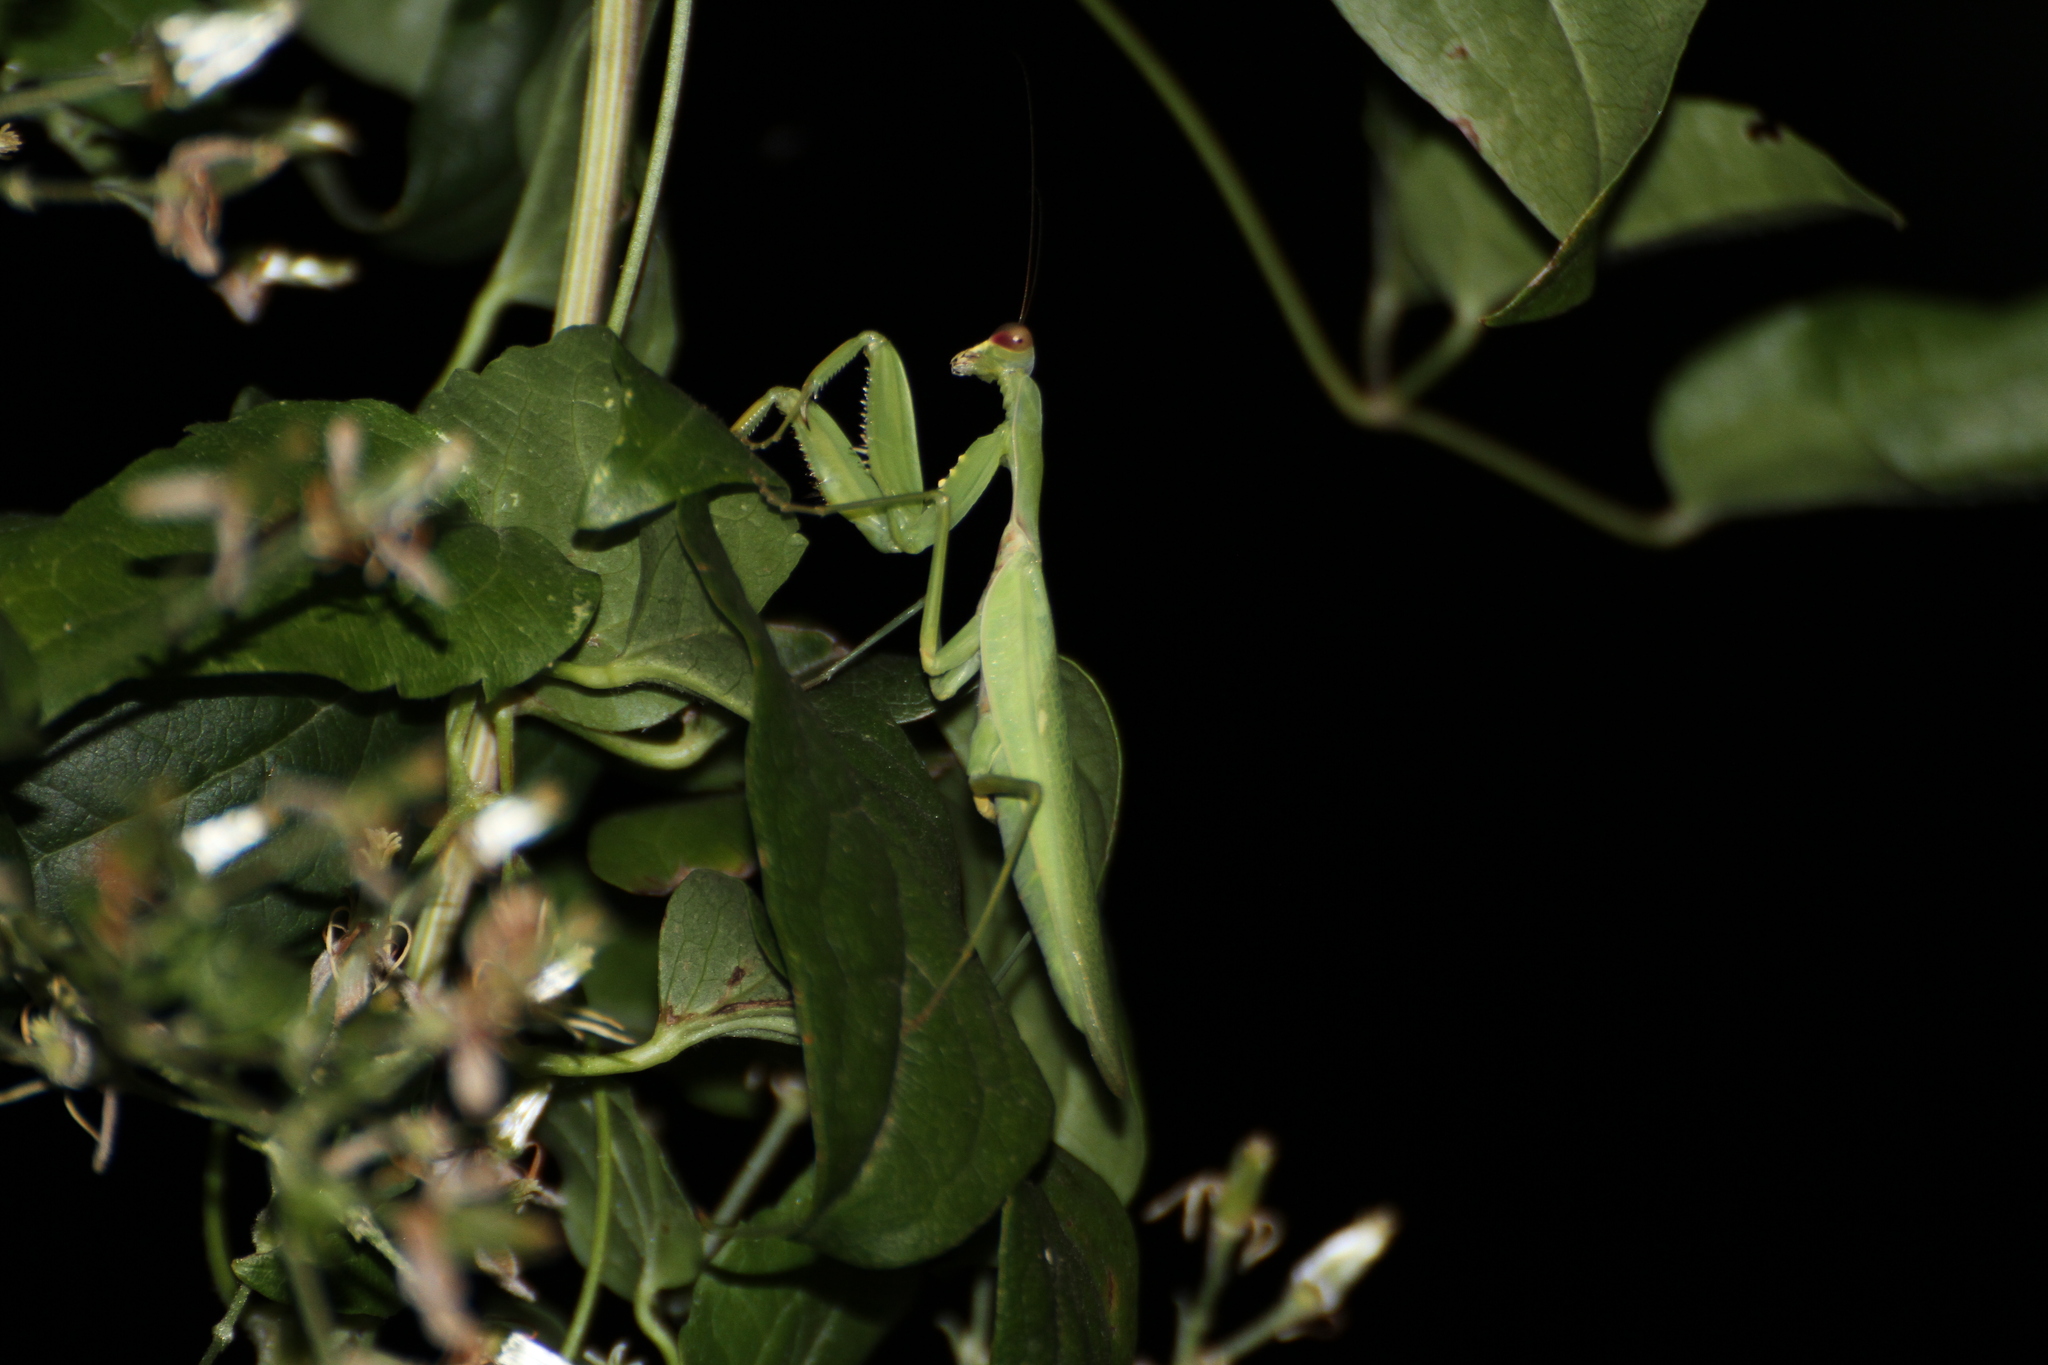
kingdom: Animalia
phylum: Arthropoda
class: Insecta
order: Mantodea
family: Mantidae
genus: Hierodula
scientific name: Hierodula patellifera
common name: Asian mantis
